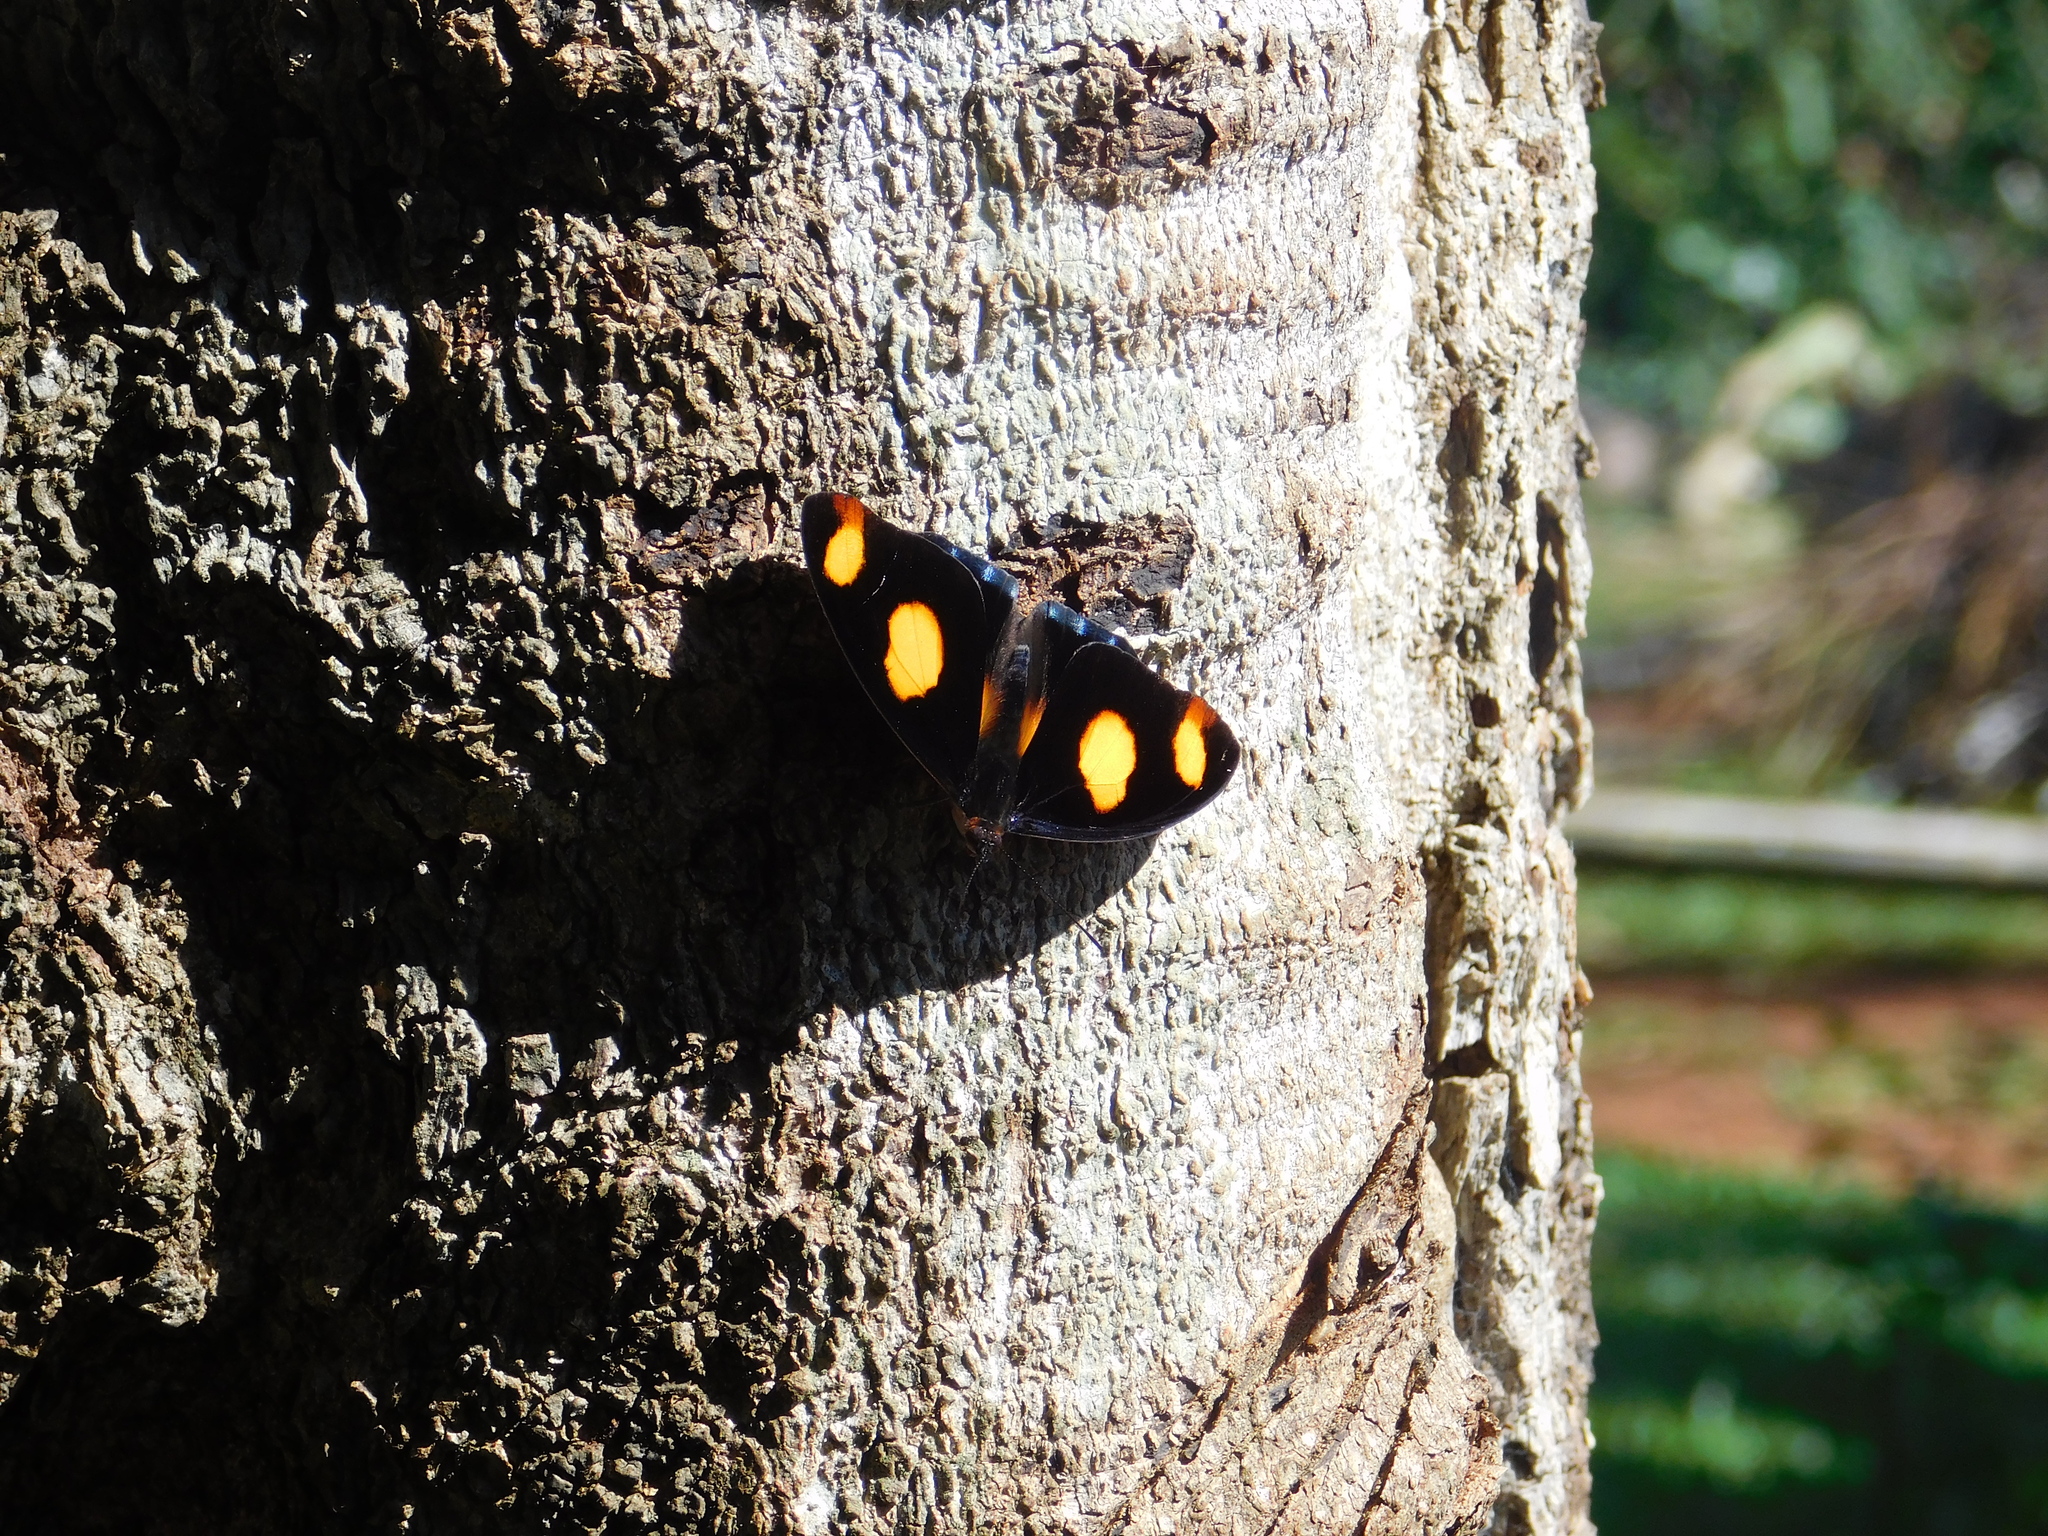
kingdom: Animalia
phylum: Arthropoda
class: Insecta
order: Lepidoptera
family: Nymphalidae
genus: Catonephele
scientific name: Catonephele numilia
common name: Blue-frosted banner
